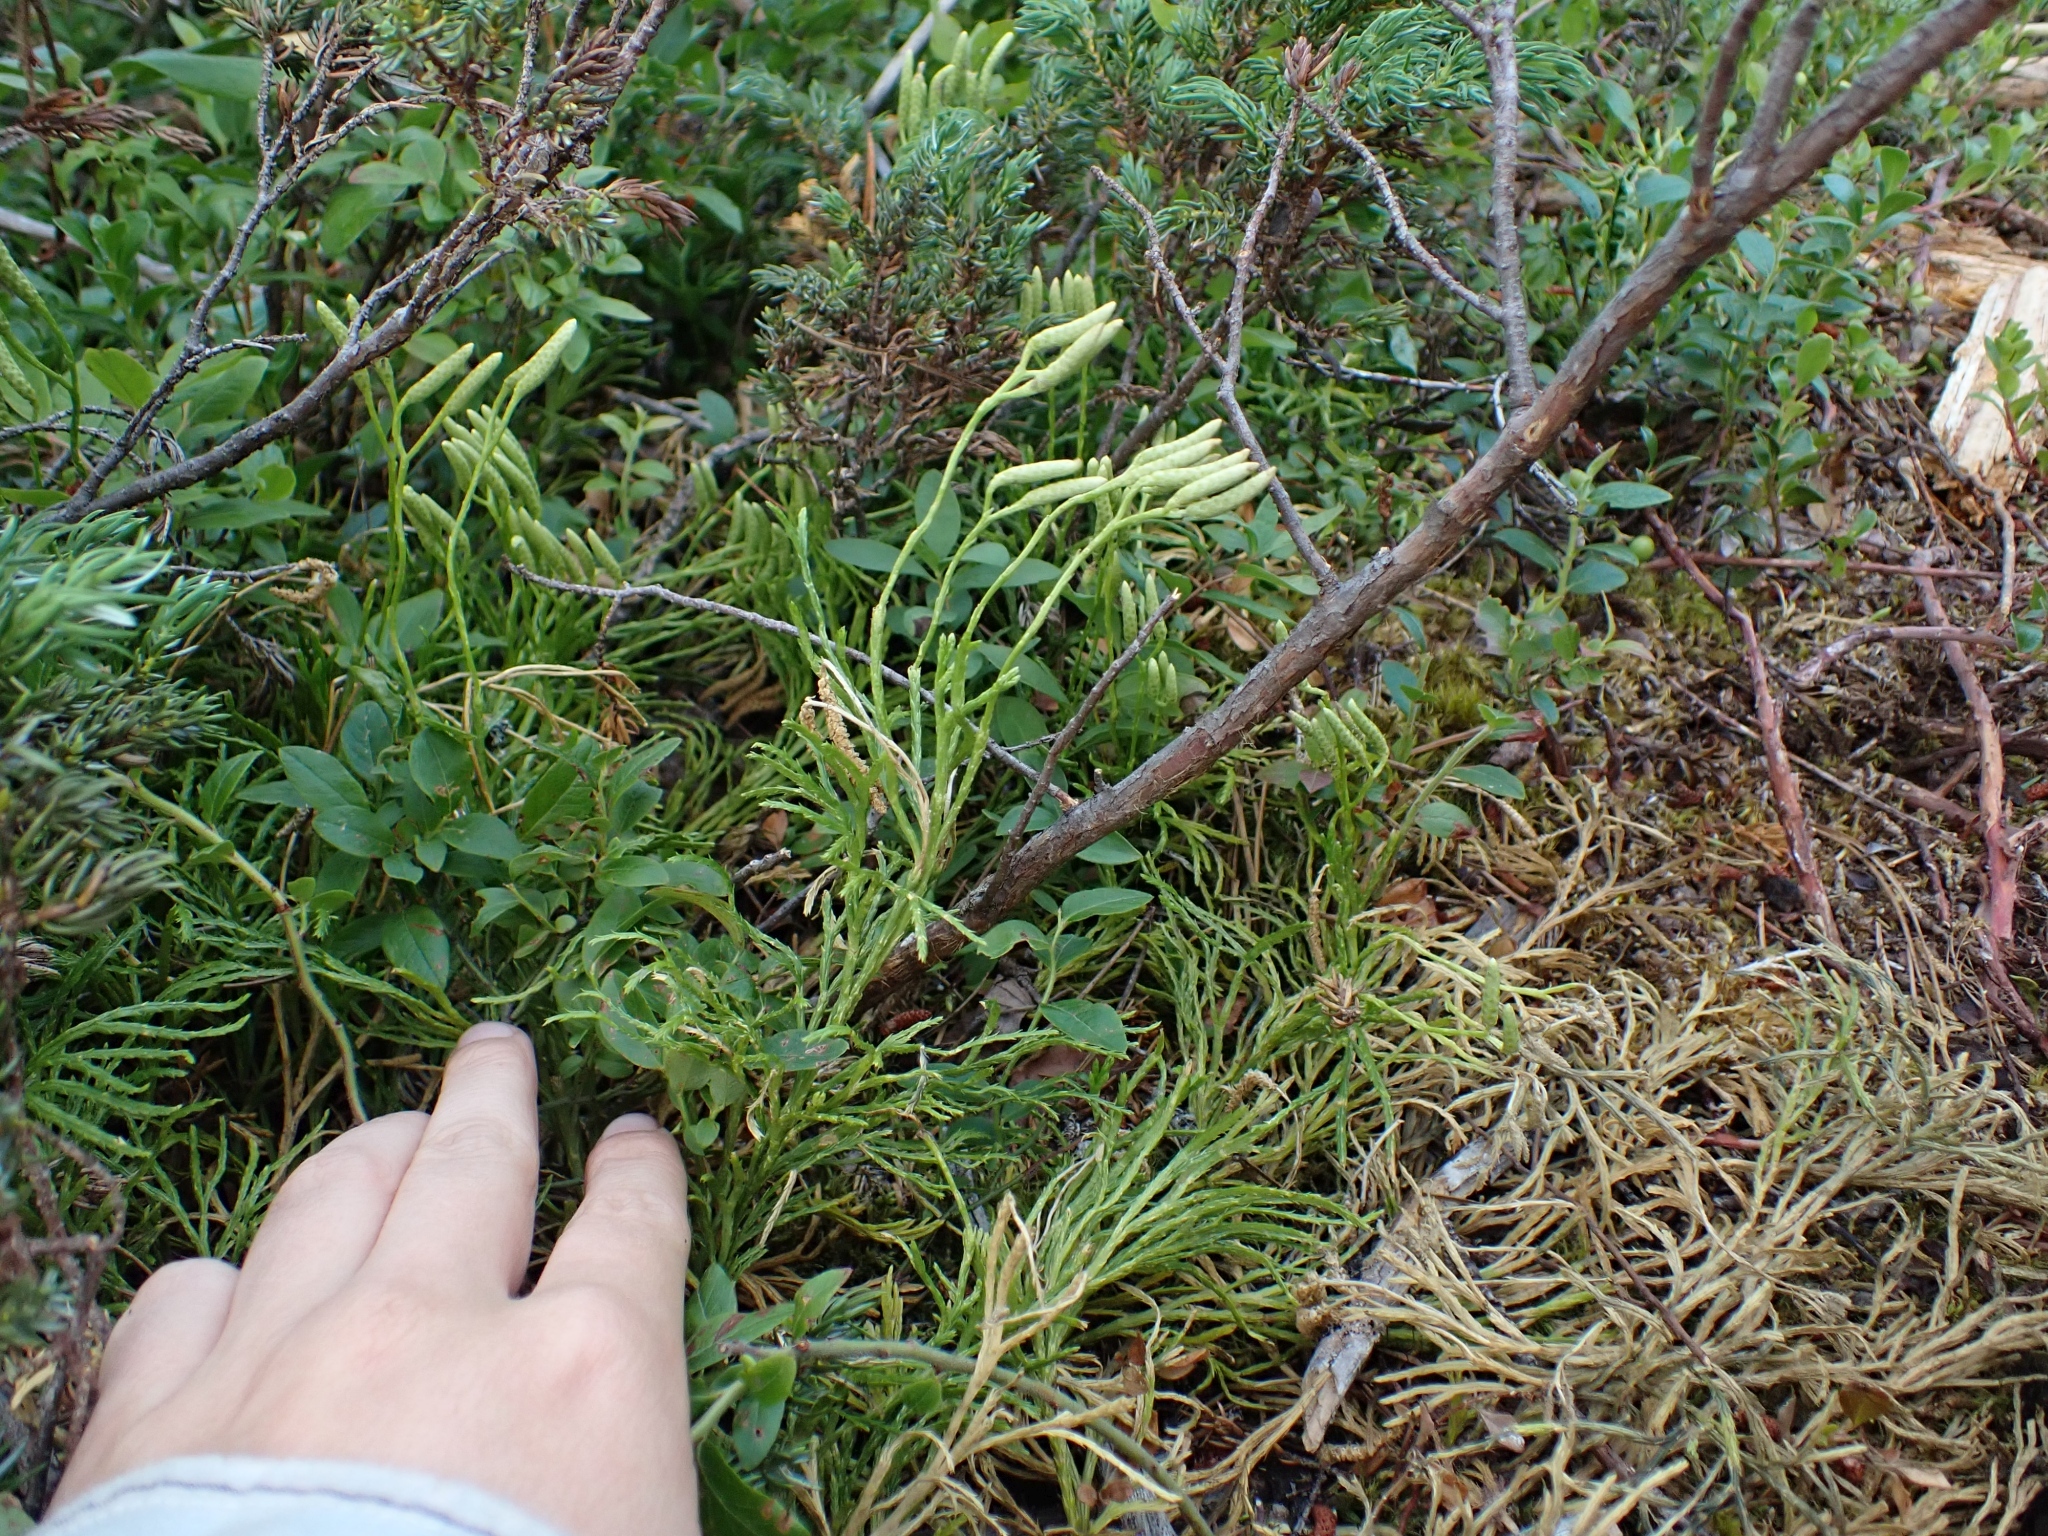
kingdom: Plantae
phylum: Tracheophyta
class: Lycopodiopsida
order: Lycopodiales
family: Lycopodiaceae
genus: Diphasiastrum
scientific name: Diphasiastrum complanatum
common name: Northern running-pine
